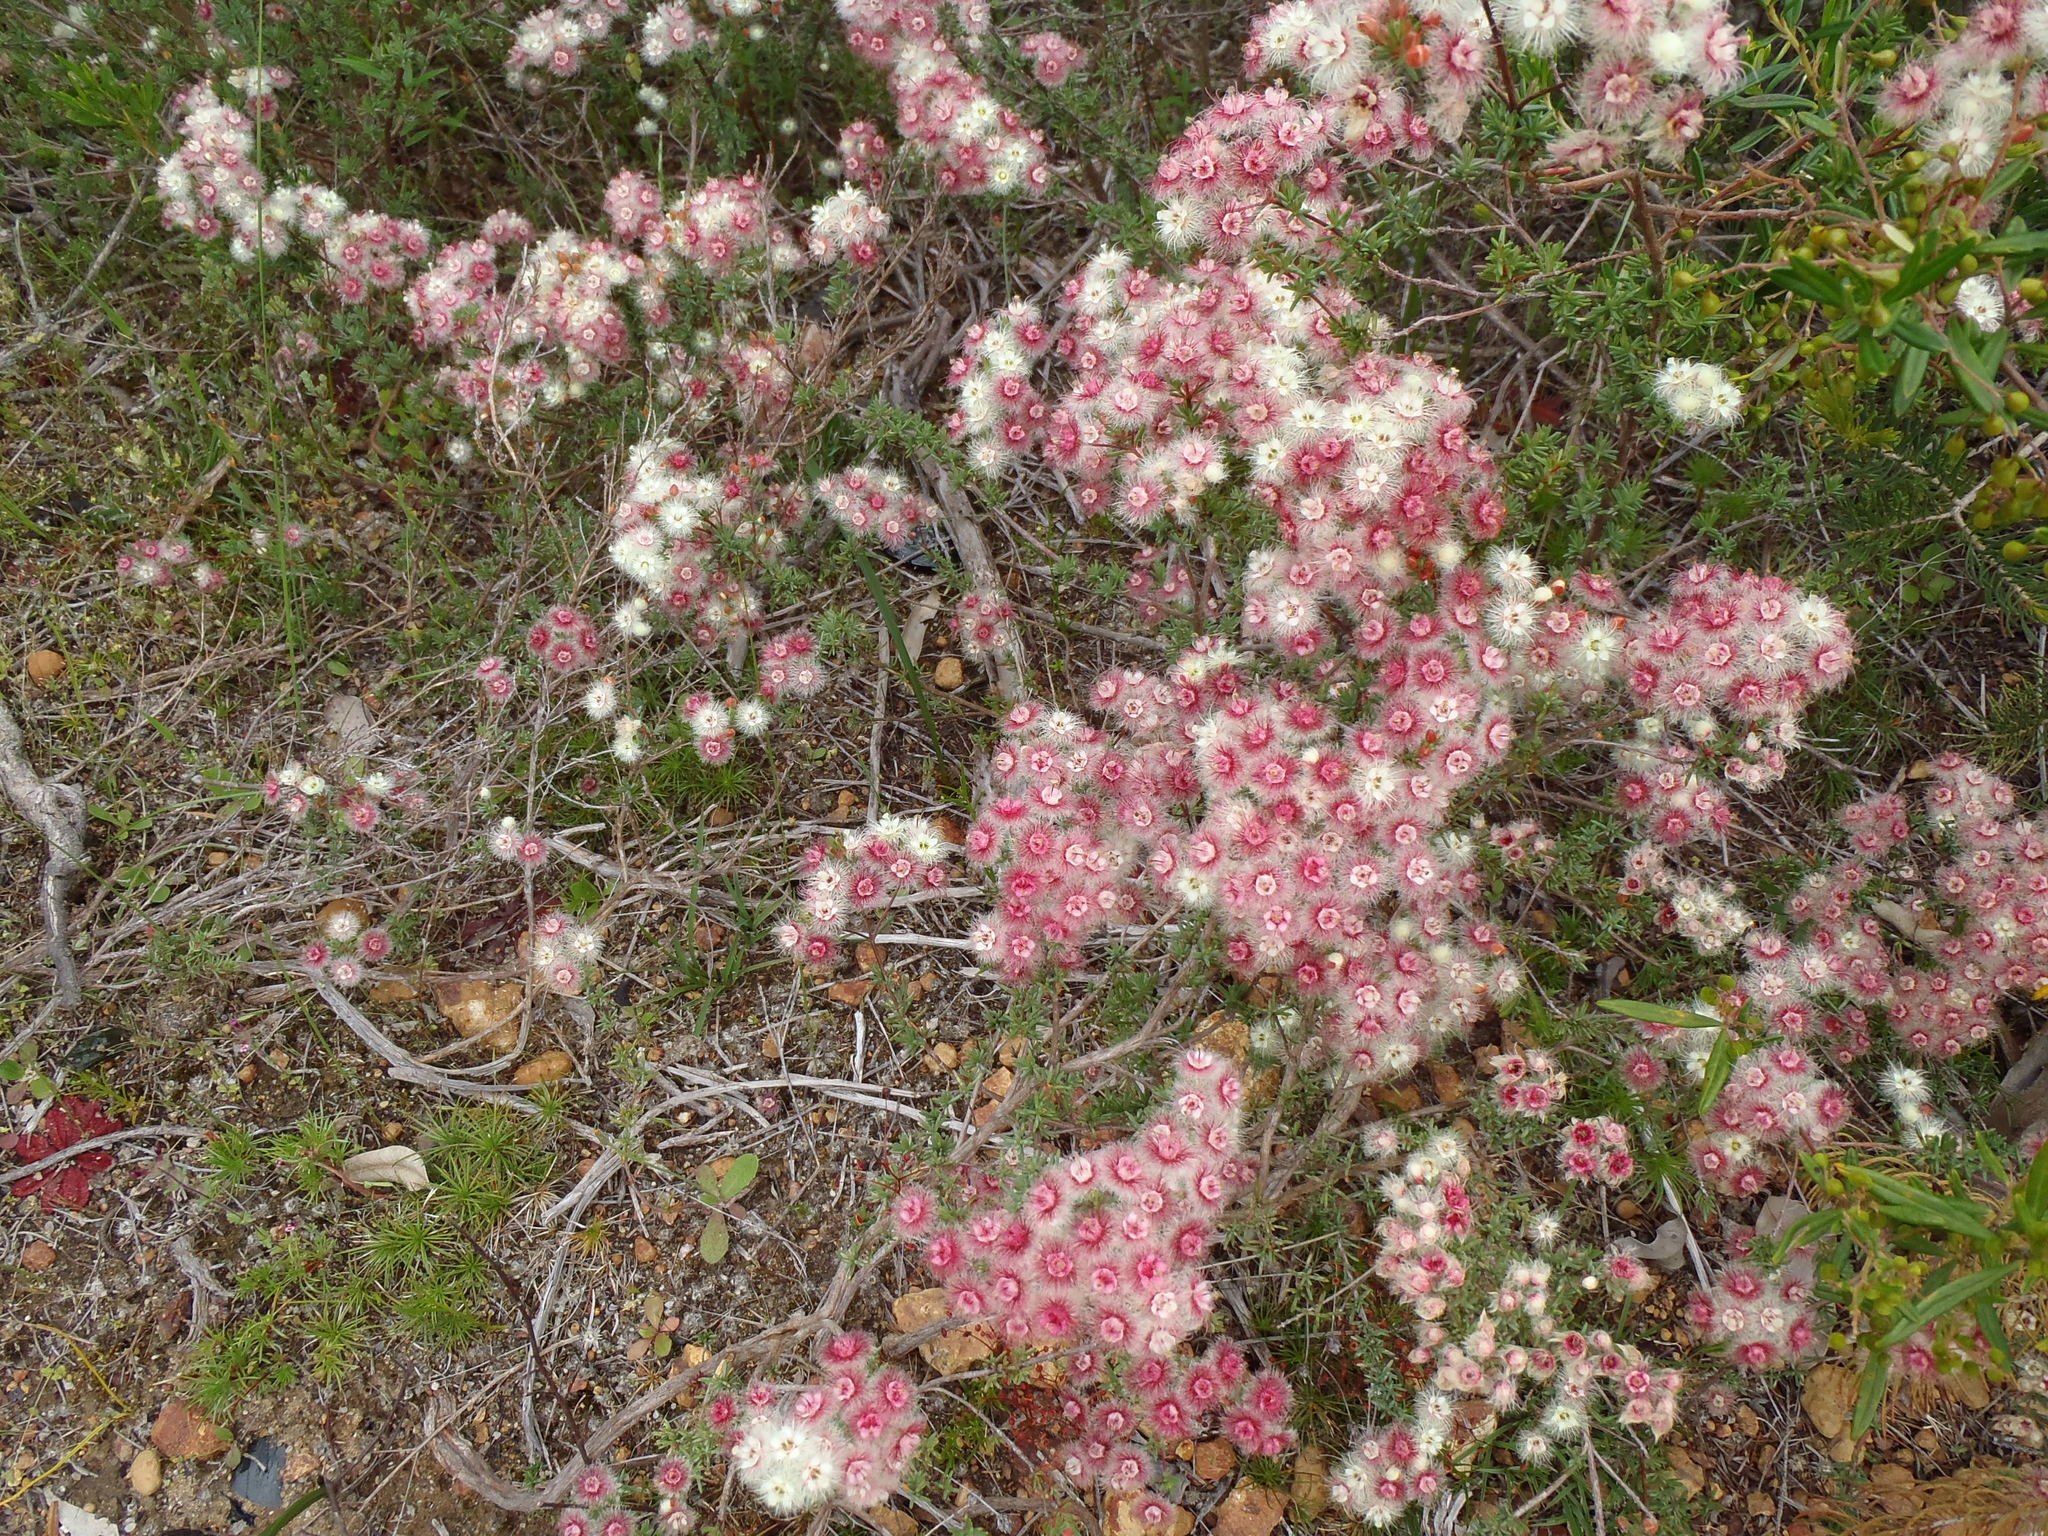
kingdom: Plantae
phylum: Tracheophyta
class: Magnoliopsida
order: Myrtales
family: Myrtaceae
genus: Verticordia
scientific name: Verticordia huegelii
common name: Variegate feather-flower
